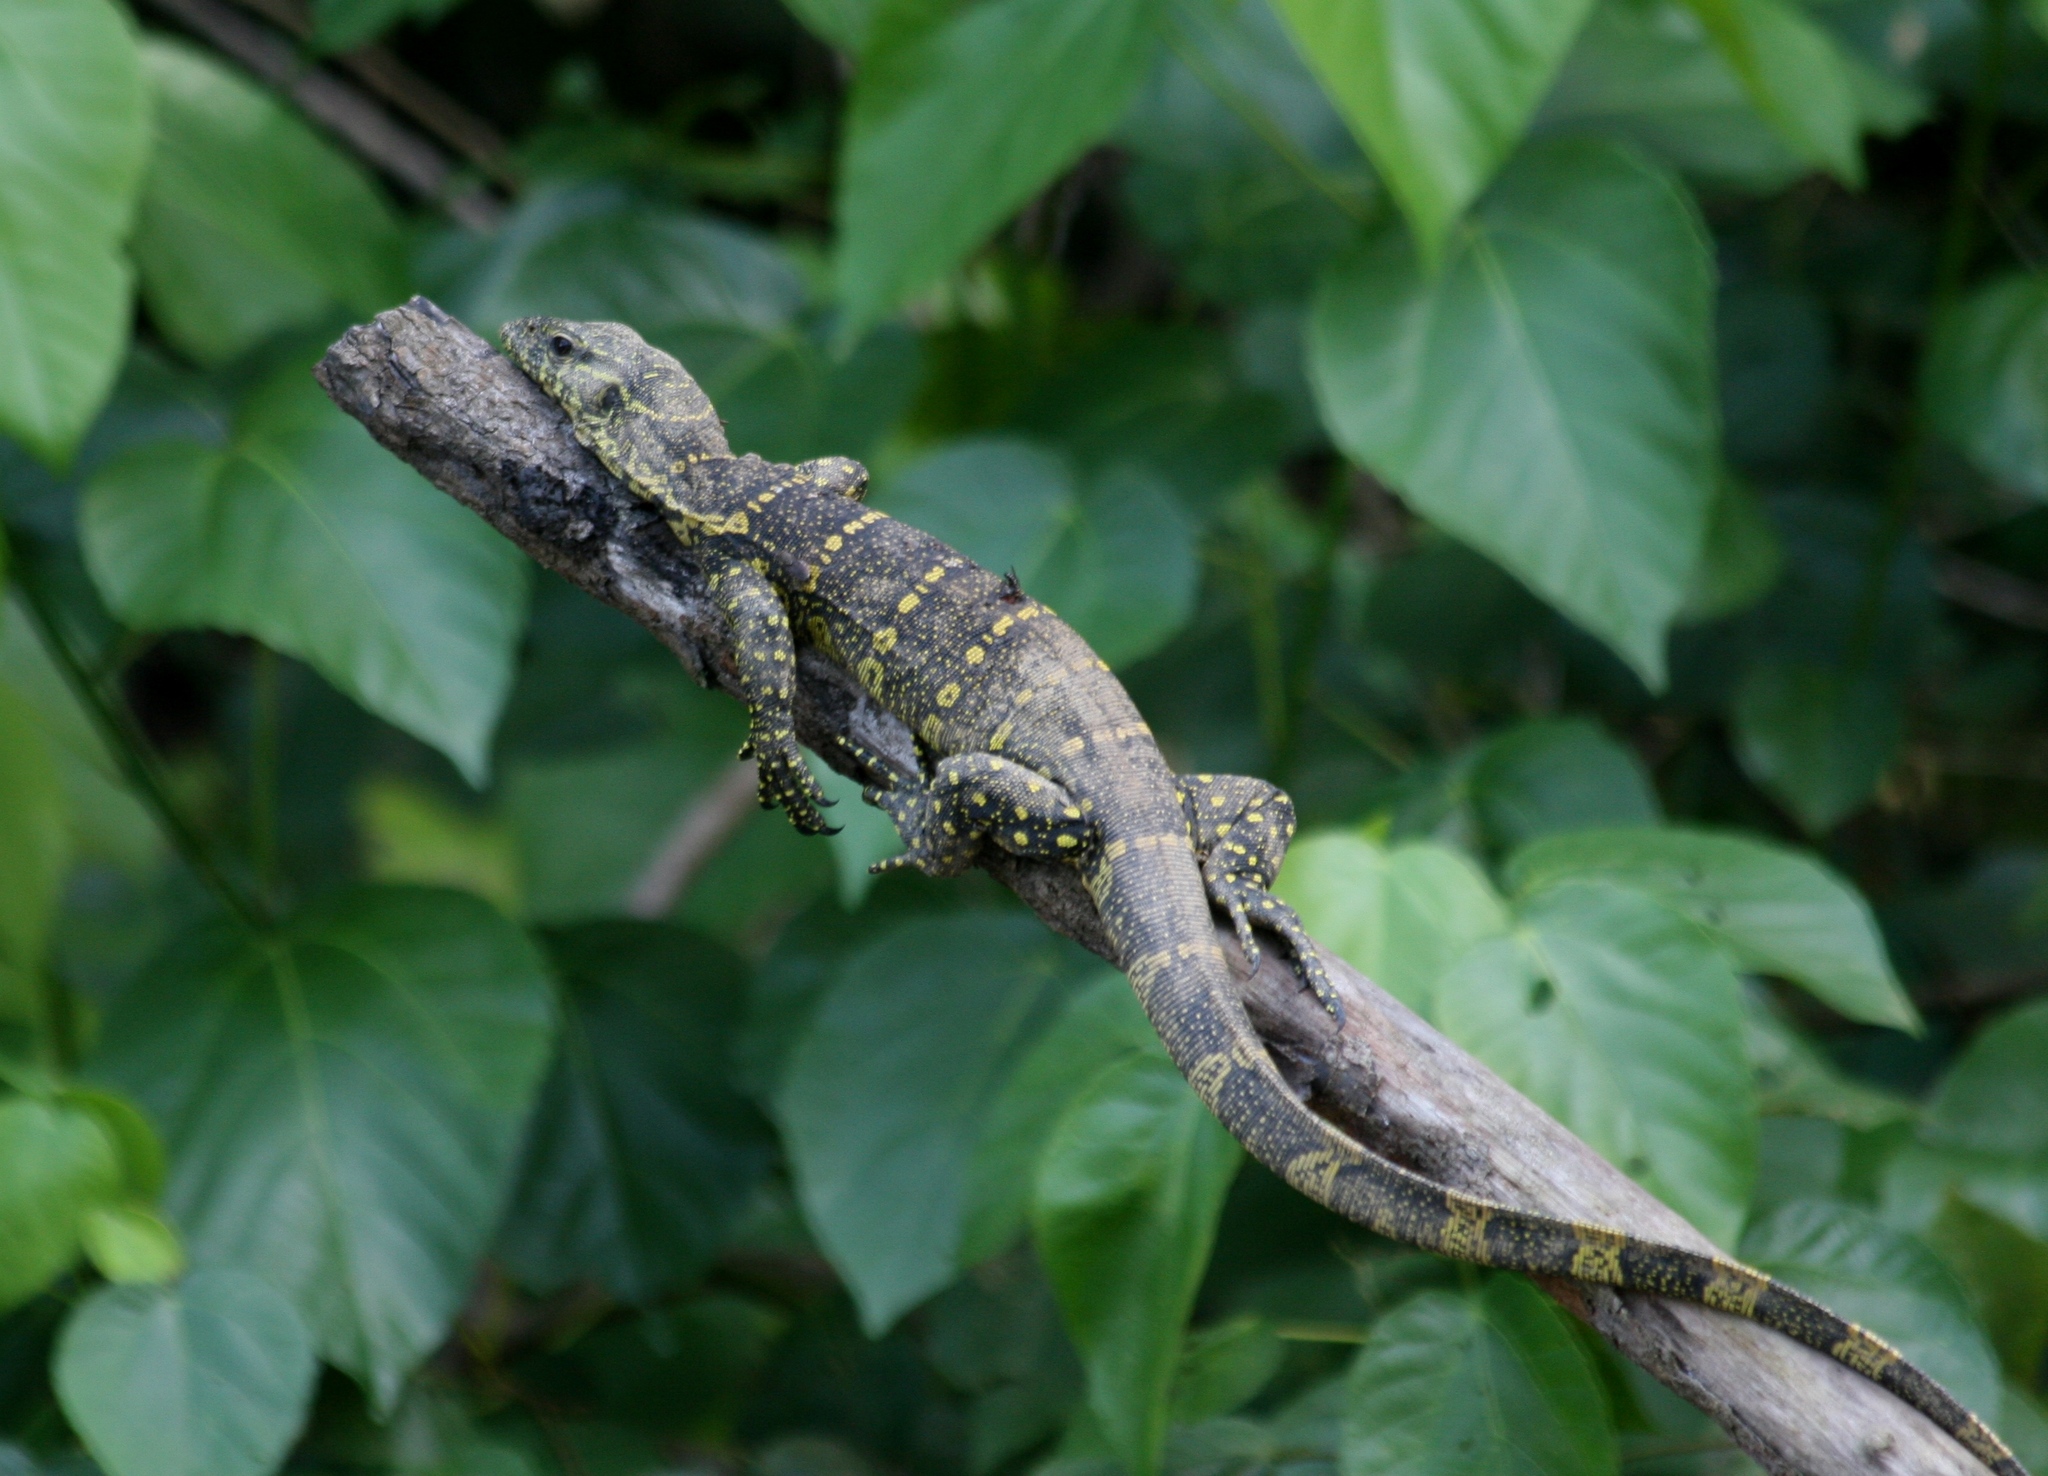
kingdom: Animalia
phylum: Chordata
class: Squamata
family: Varanidae
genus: Varanus
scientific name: Varanus niloticus
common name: Nile monitor
